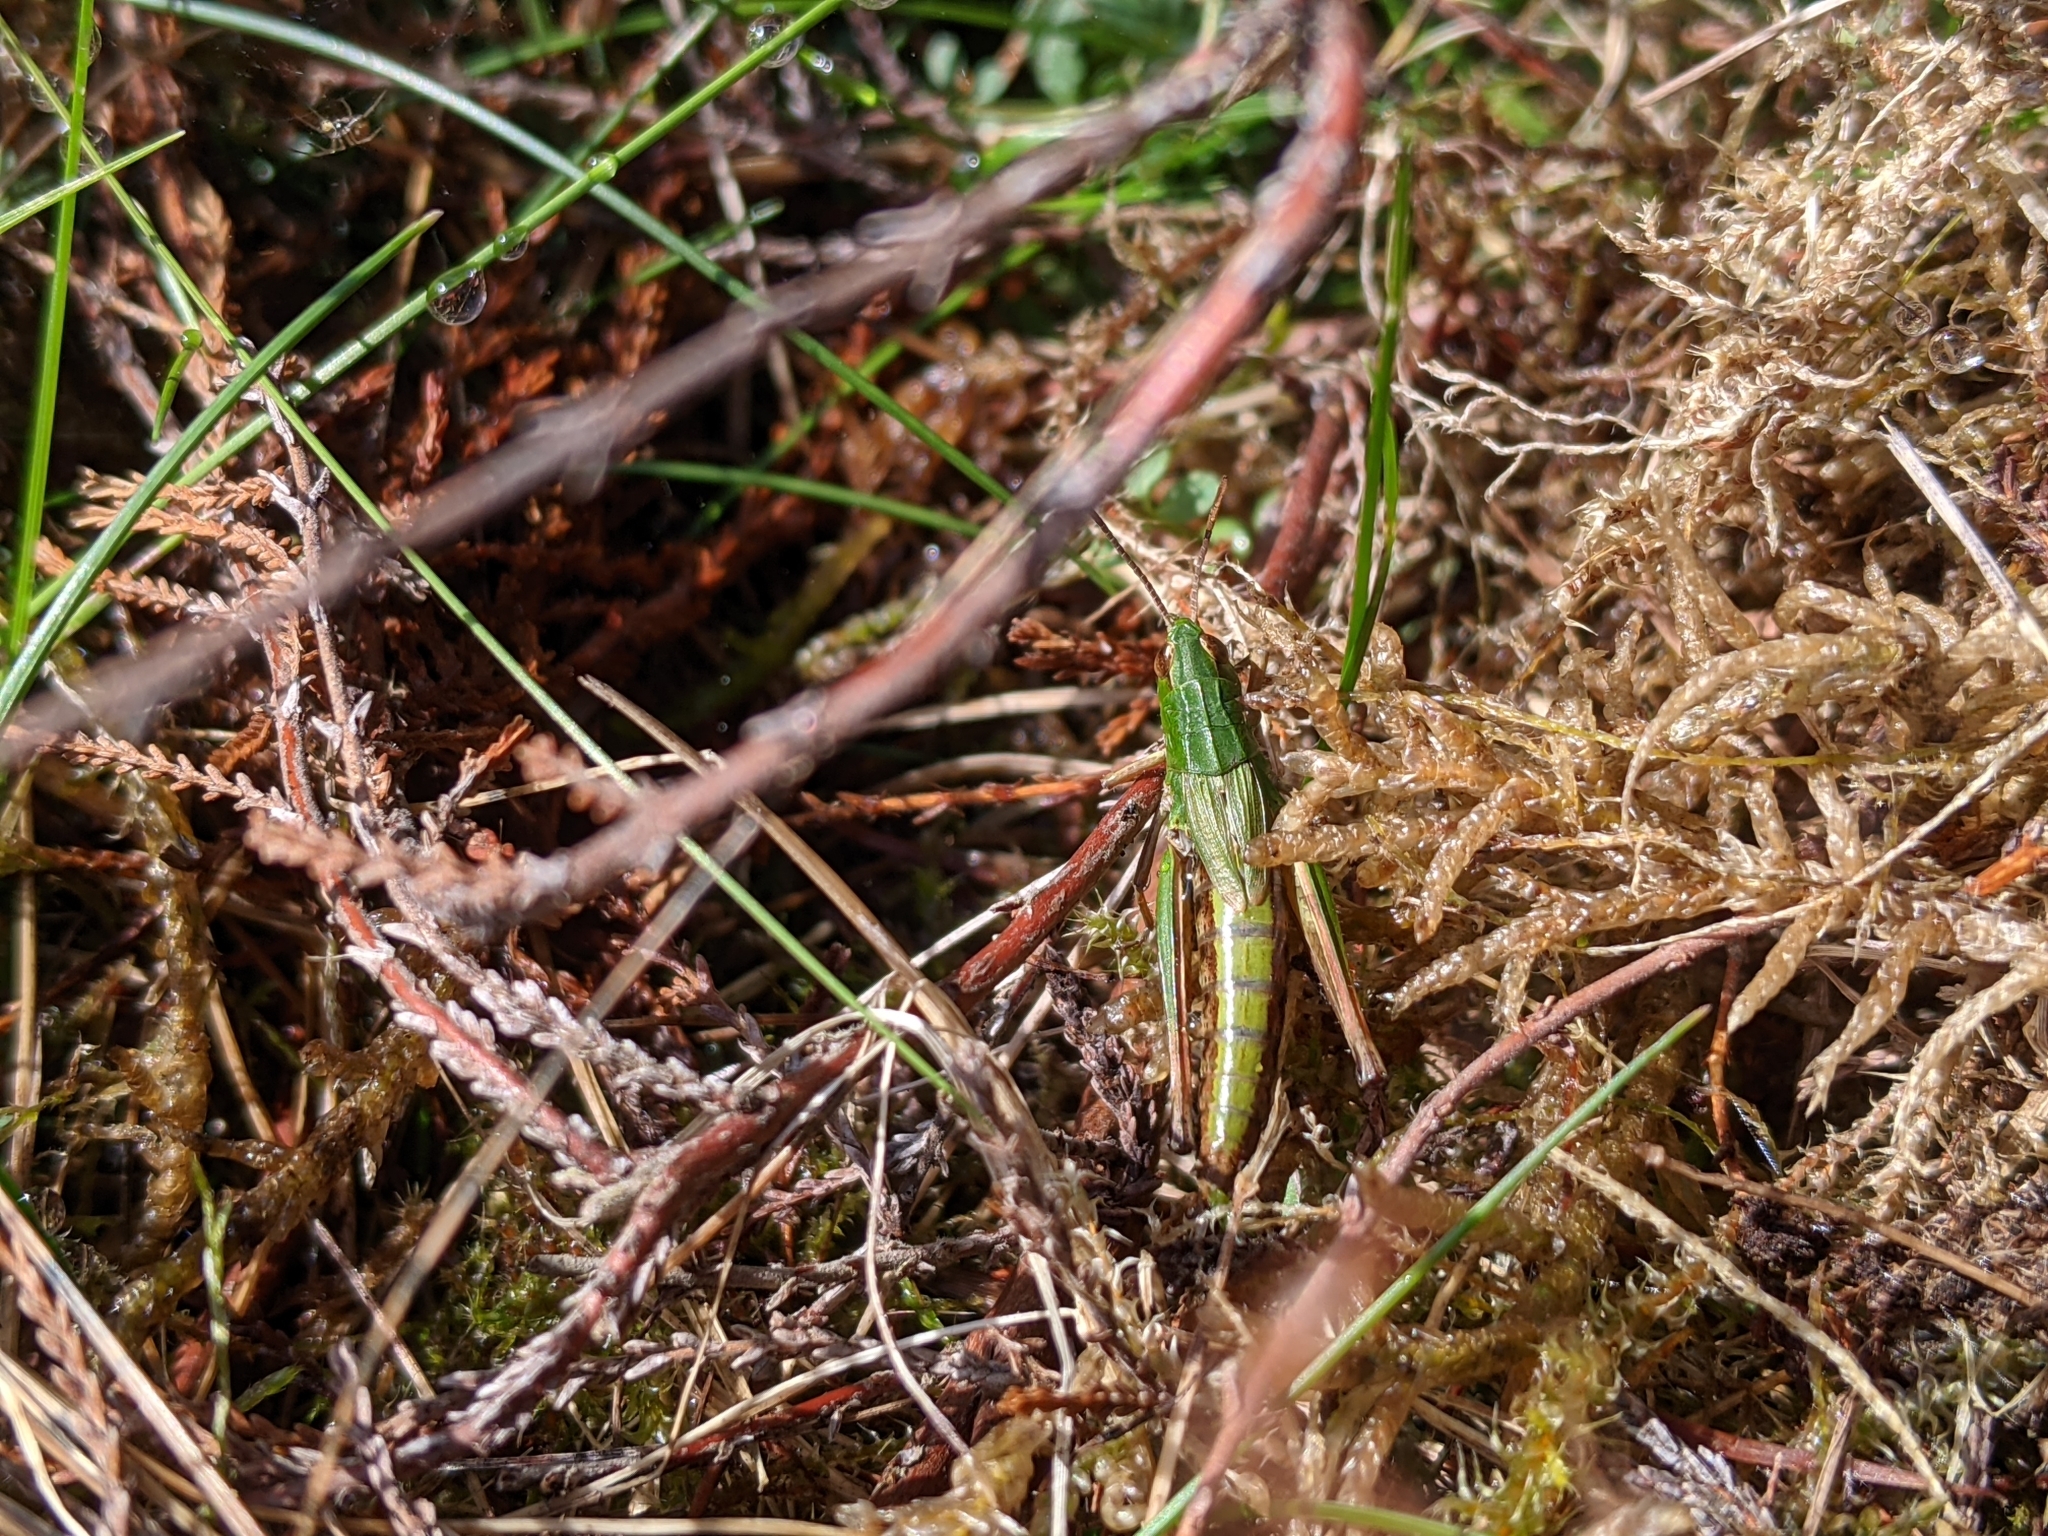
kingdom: Animalia
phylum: Arthropoda
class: Insecta
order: Orthoptera
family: Acrididae
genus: Pseudochorthippus
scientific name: Pseudochorthippus parallelus
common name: Meadow grasshopper
